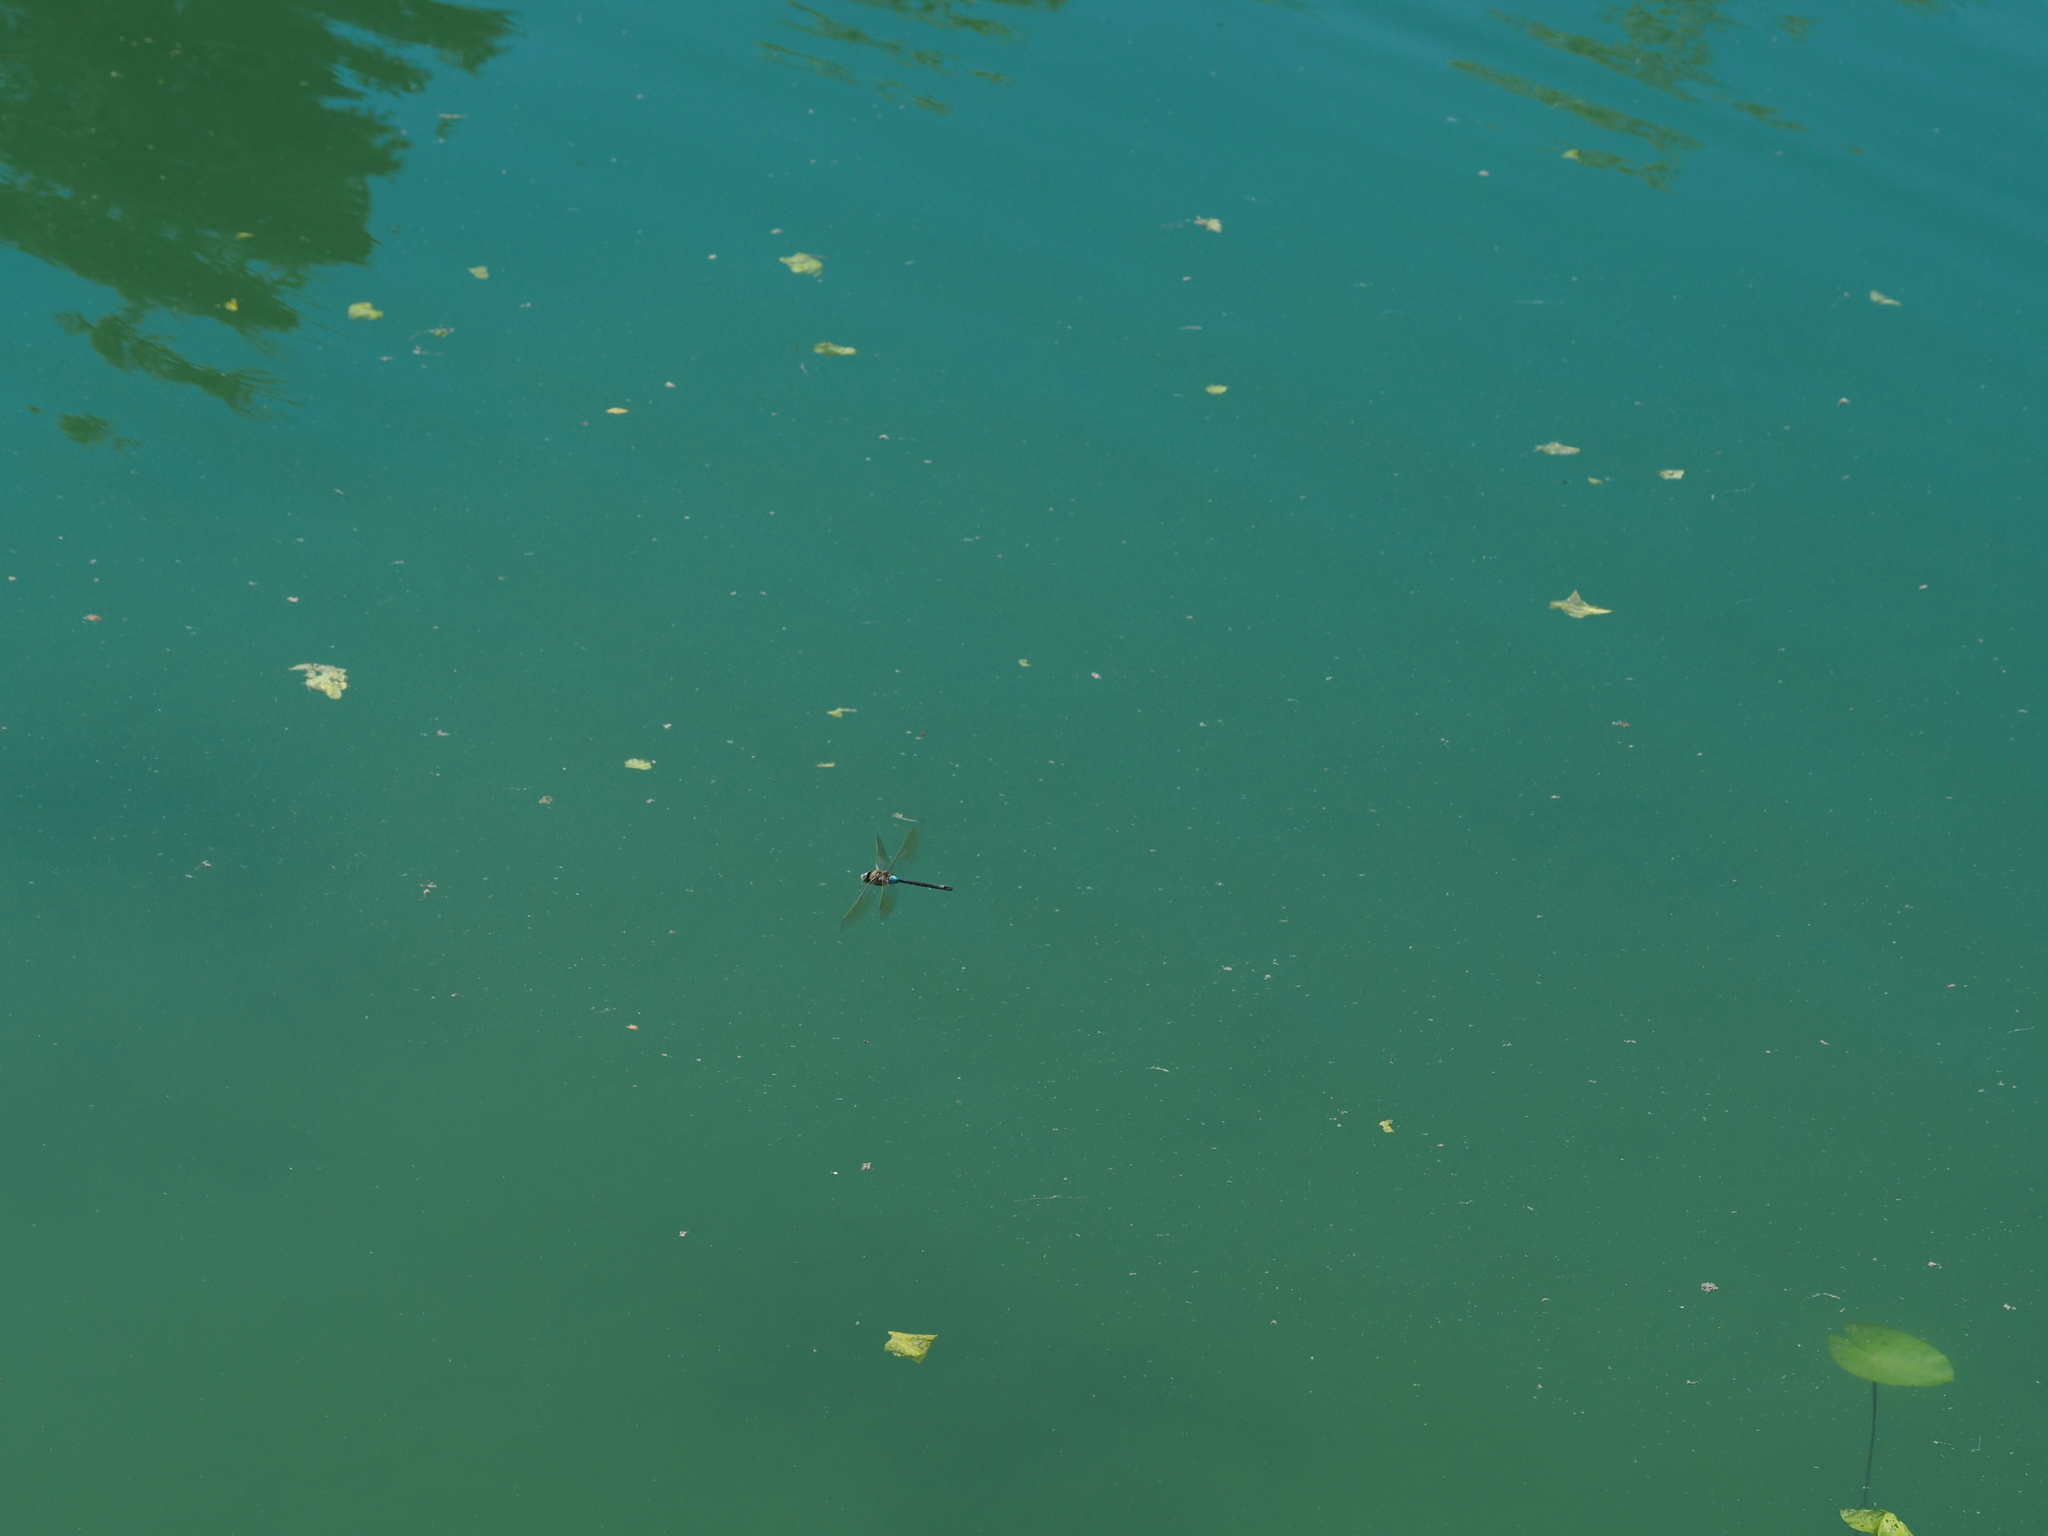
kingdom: Animalia
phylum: Arthropoda
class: Insecta
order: Odonata
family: Aeshnidae
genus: Anax
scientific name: Anax parthenope
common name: Lesser emperor
